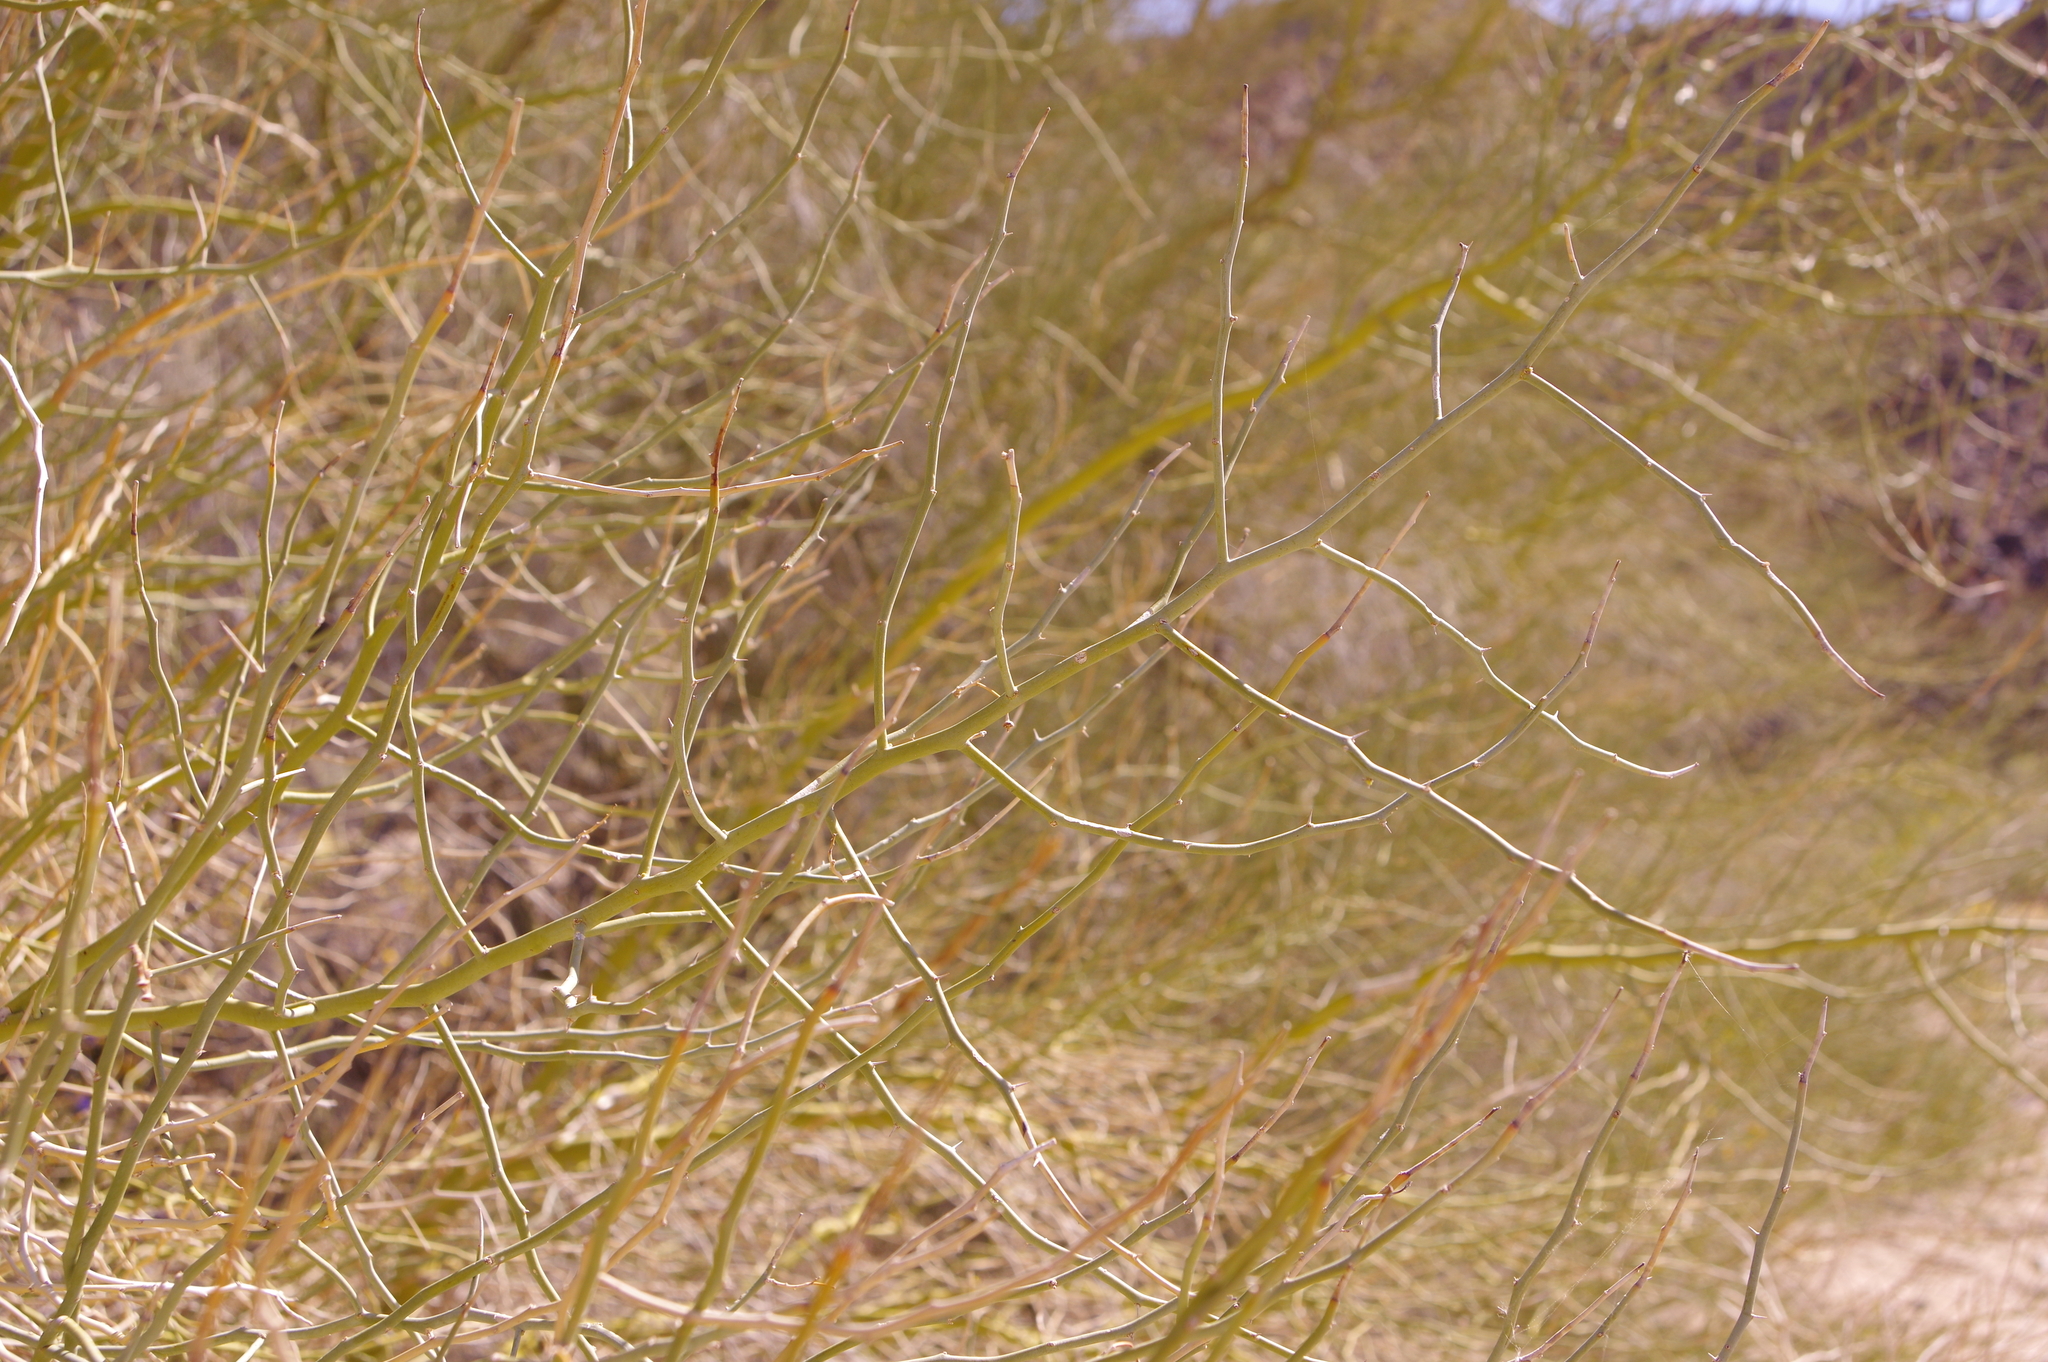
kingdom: Plantae
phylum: Tracheophyta
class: Magnoliopsida
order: Fabales
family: Fabaceae
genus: Parkinsonia
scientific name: Parkinsonia florida
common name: Blue paloverde
